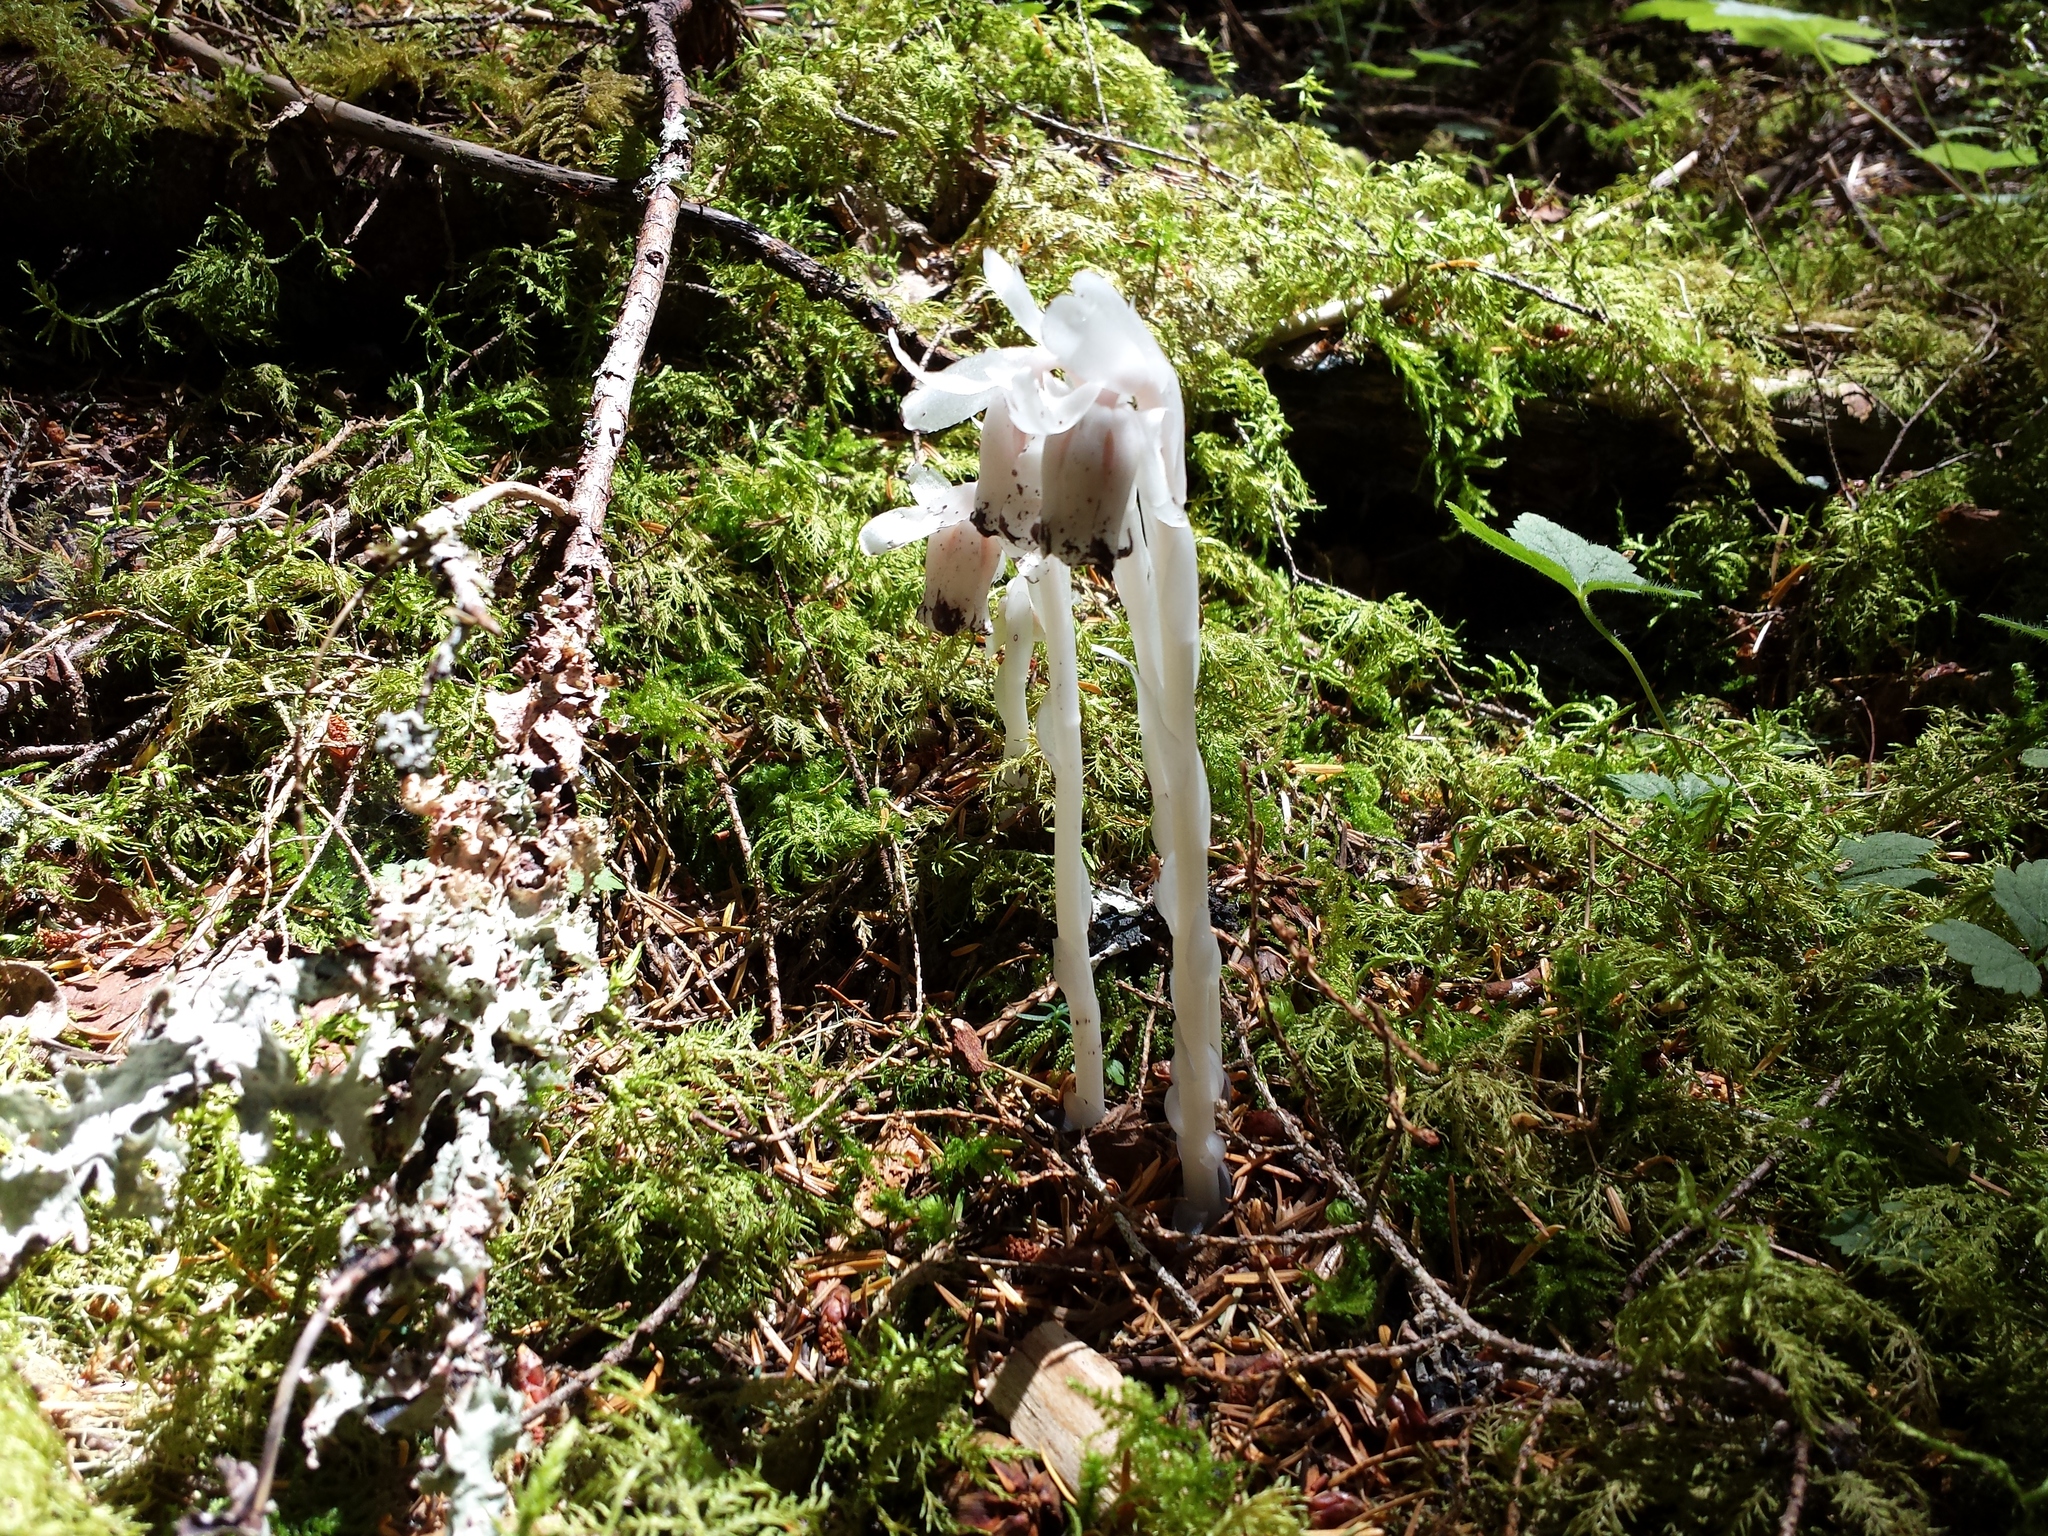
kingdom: Plantae
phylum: Tracheophyta
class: Magnoliopsida
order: Ericales
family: Ericaceae
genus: Monotropa
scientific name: Monotropa uniflora
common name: Convulsion root
